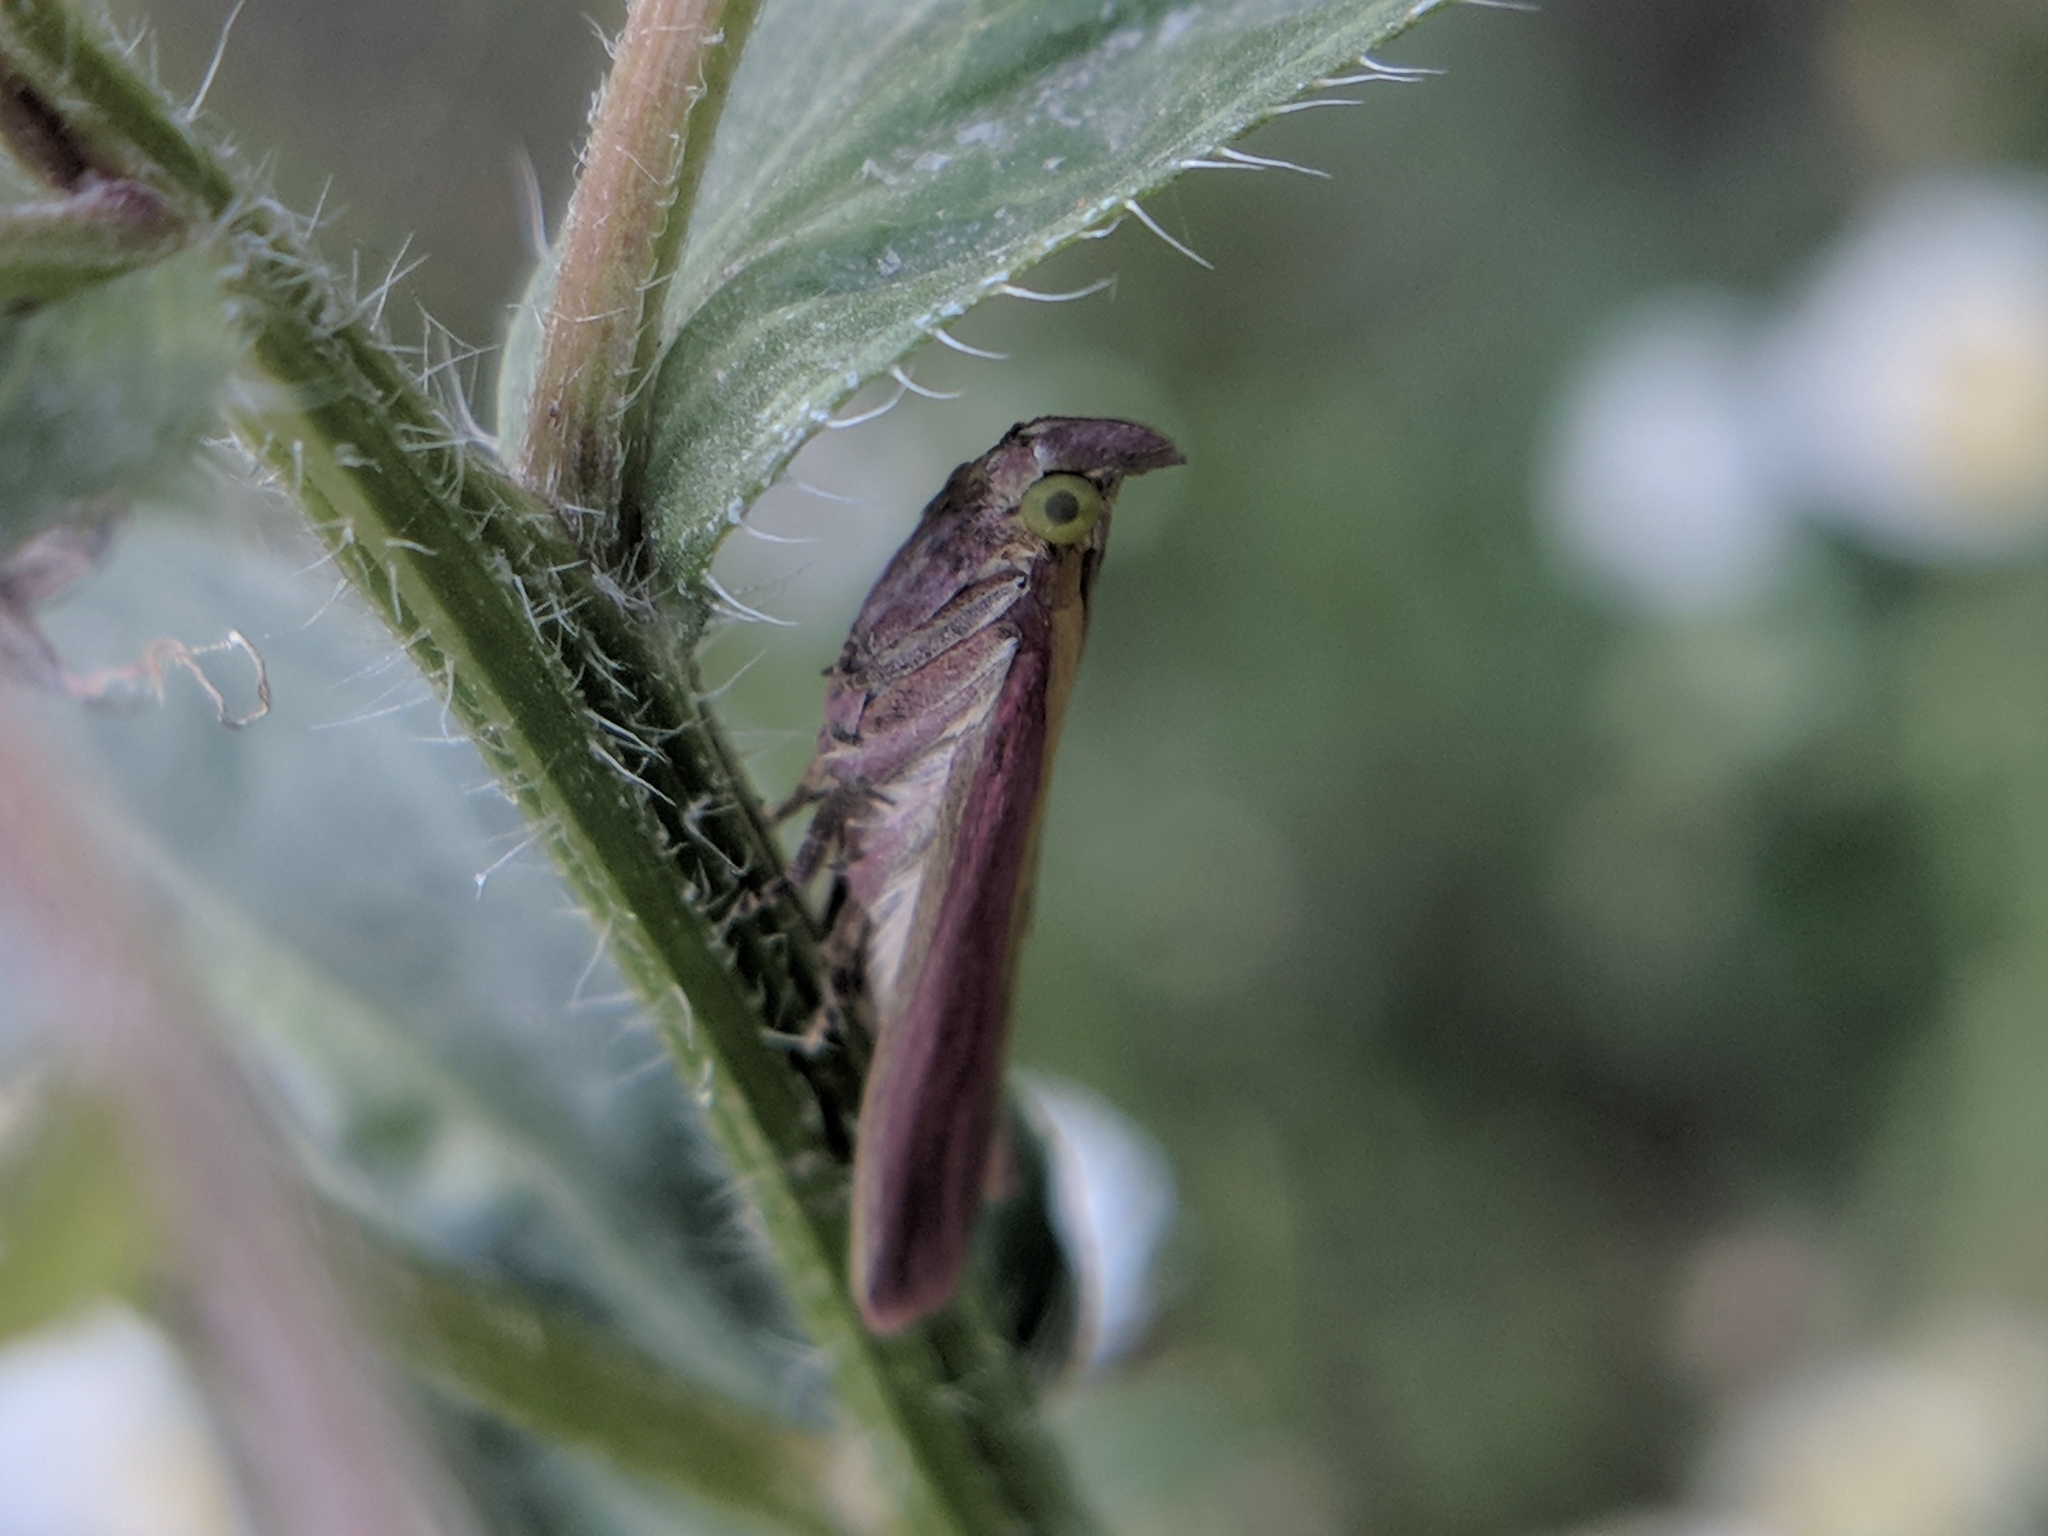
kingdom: Animalia
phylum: Arthropoda
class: Insecta
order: Lepidoptera
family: Pyralidae
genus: Oncocera
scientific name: Oncocera semirubella
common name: Rosy-striped knot-horn
